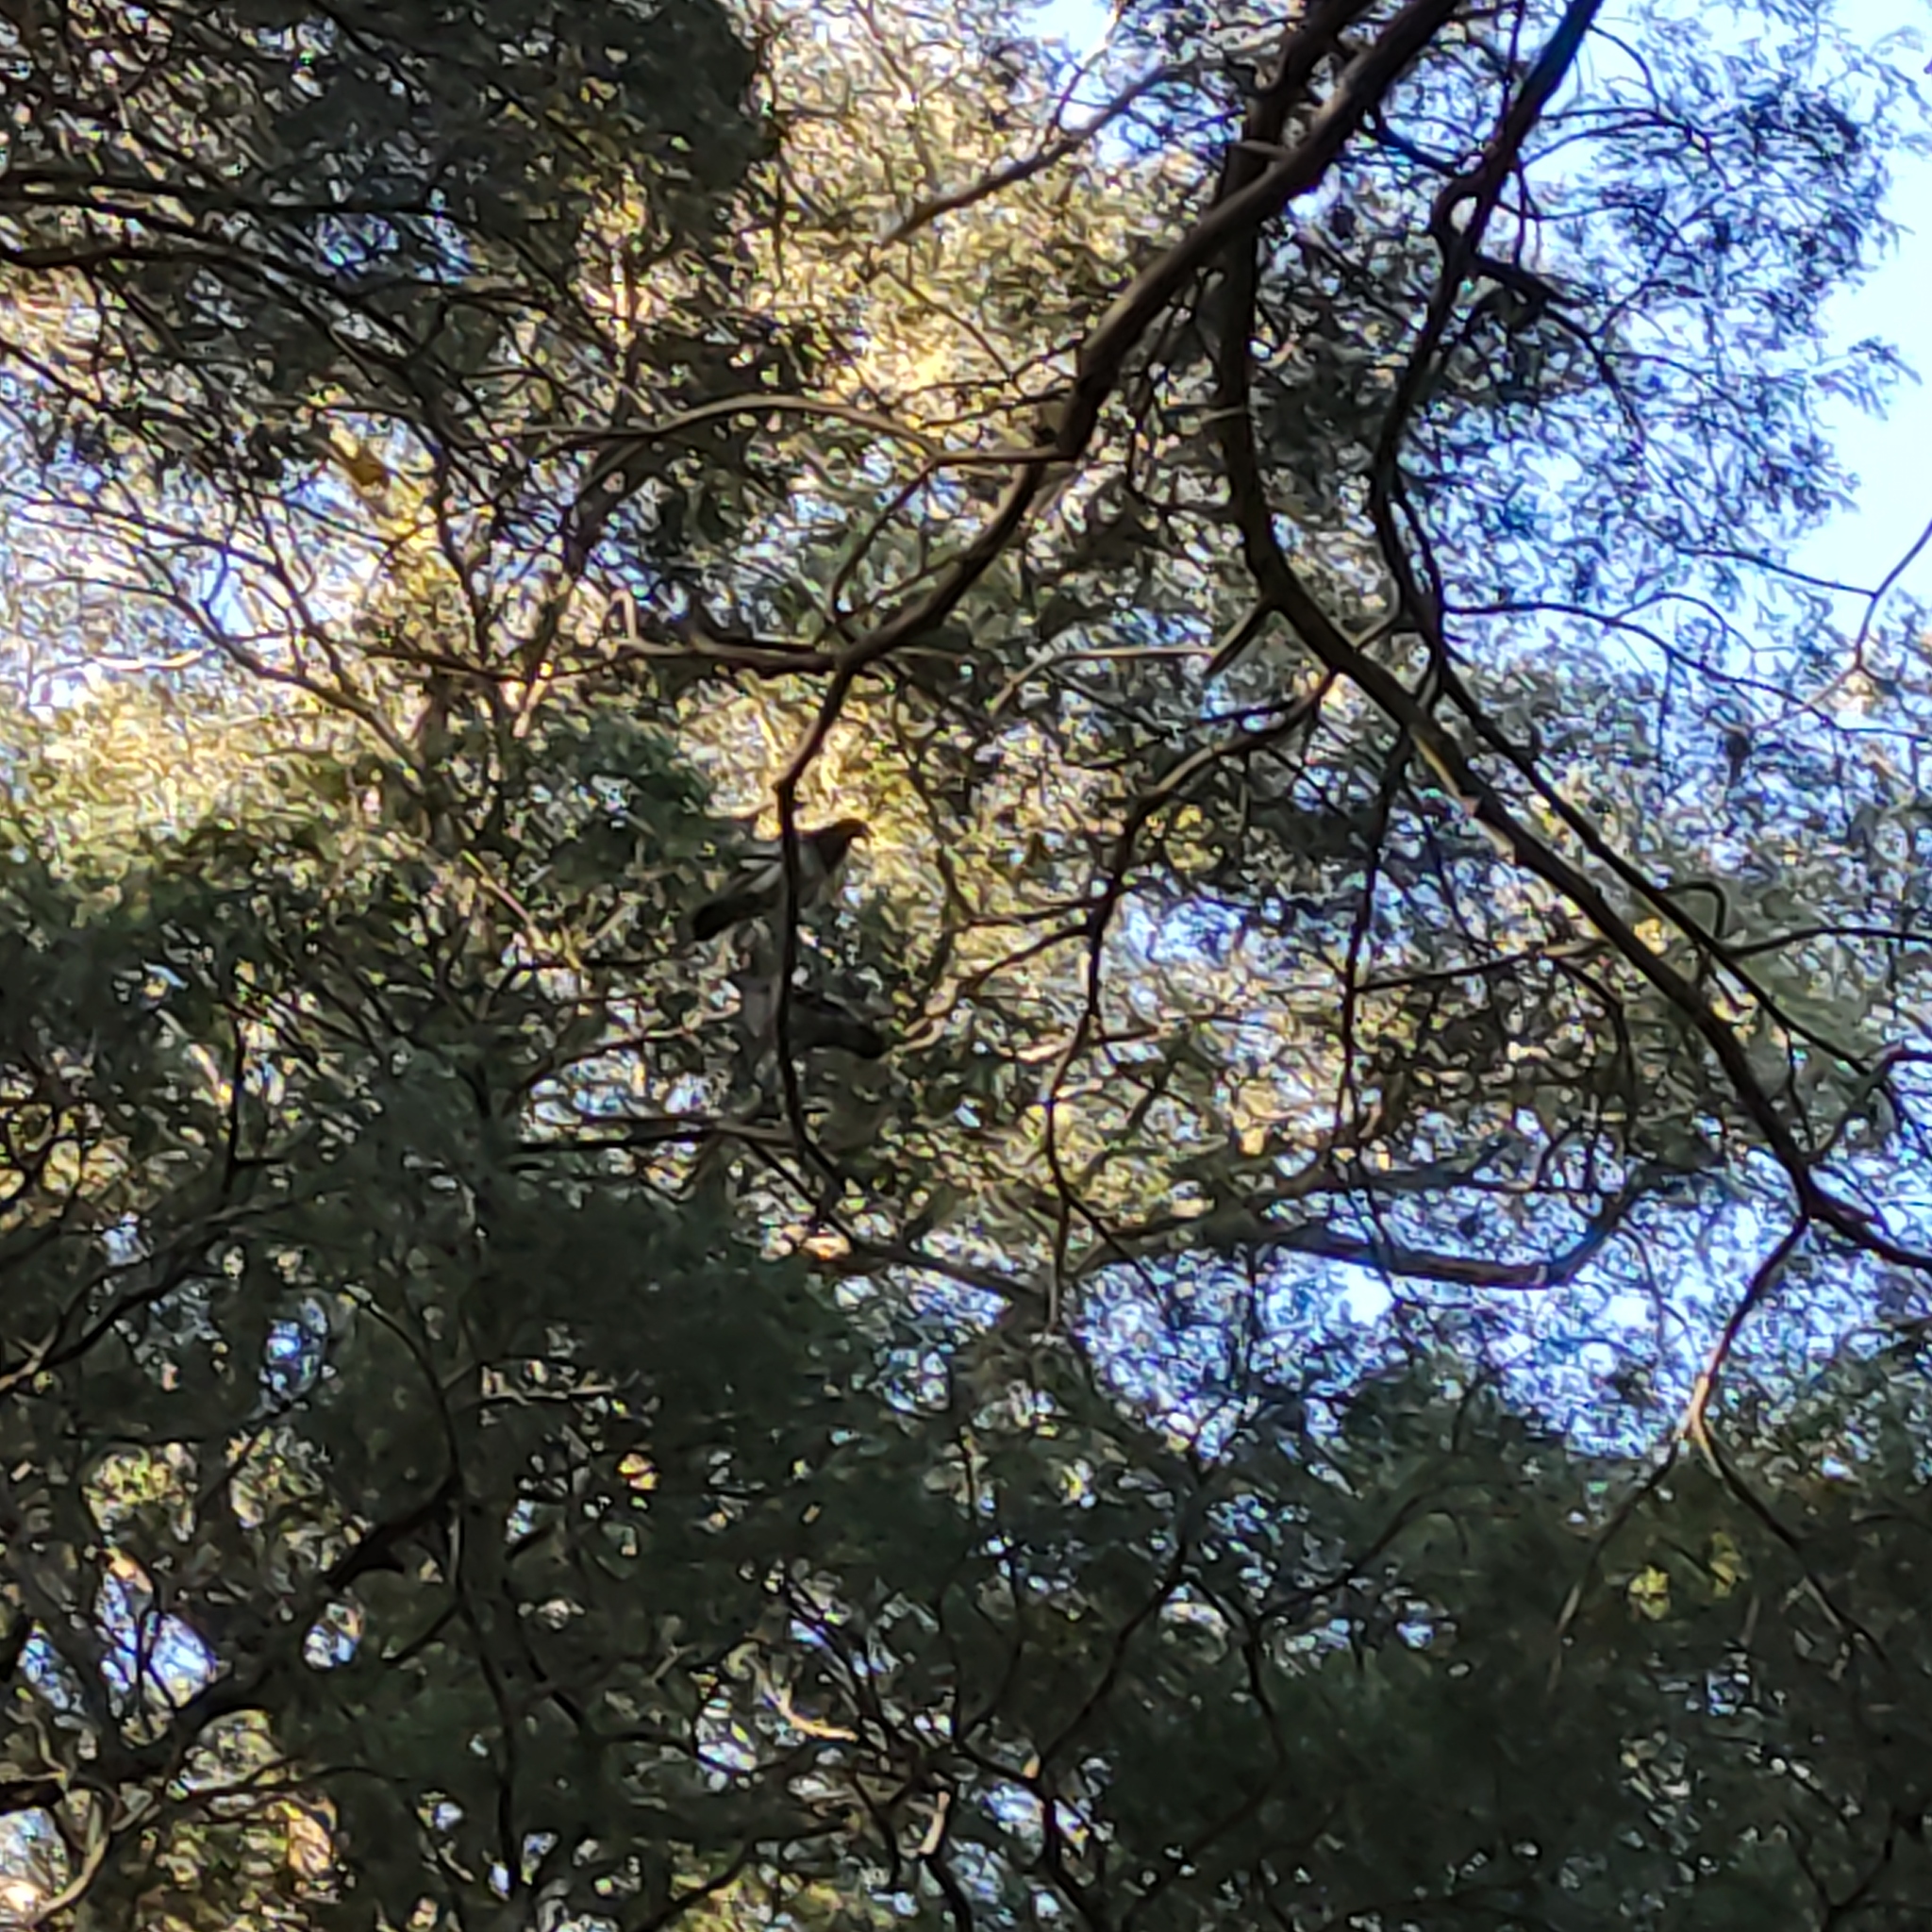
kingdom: Animalia
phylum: Chordata
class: Aves
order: Columbiformes
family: Columbidae
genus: Hemiphaga
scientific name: Hemiphaga novaeseelandiae
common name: New zealand pigeon
